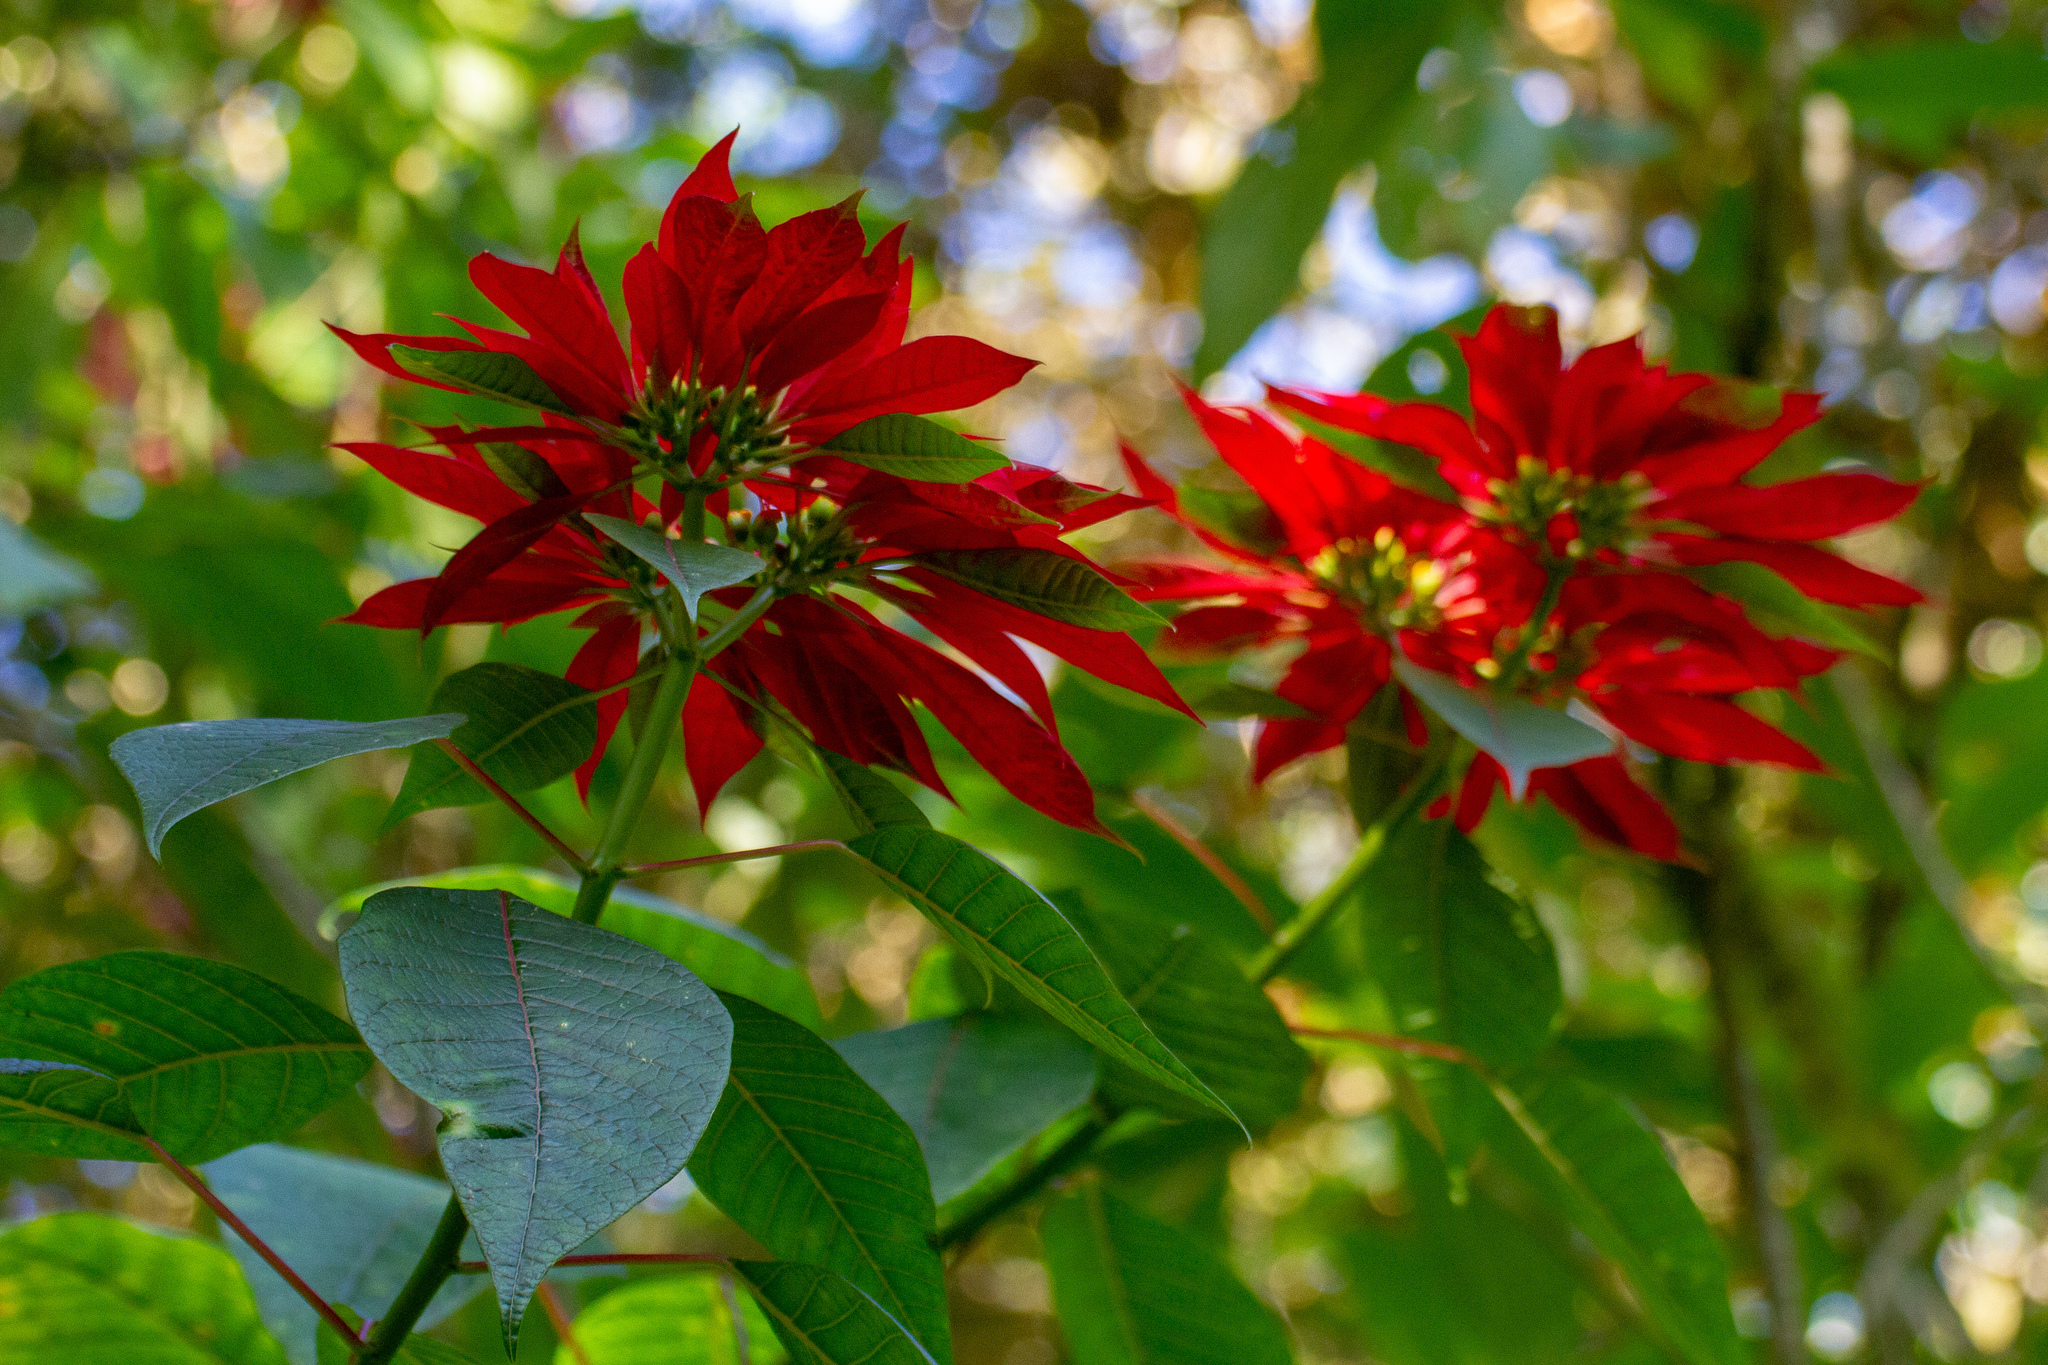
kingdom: Plantae
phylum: Tracheophyta
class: Magnoliopsida
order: Malpighiales
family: Euphorbiaceae
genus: Euphorbia
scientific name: Euphorbia pulcherrima
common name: Christmas-flower
